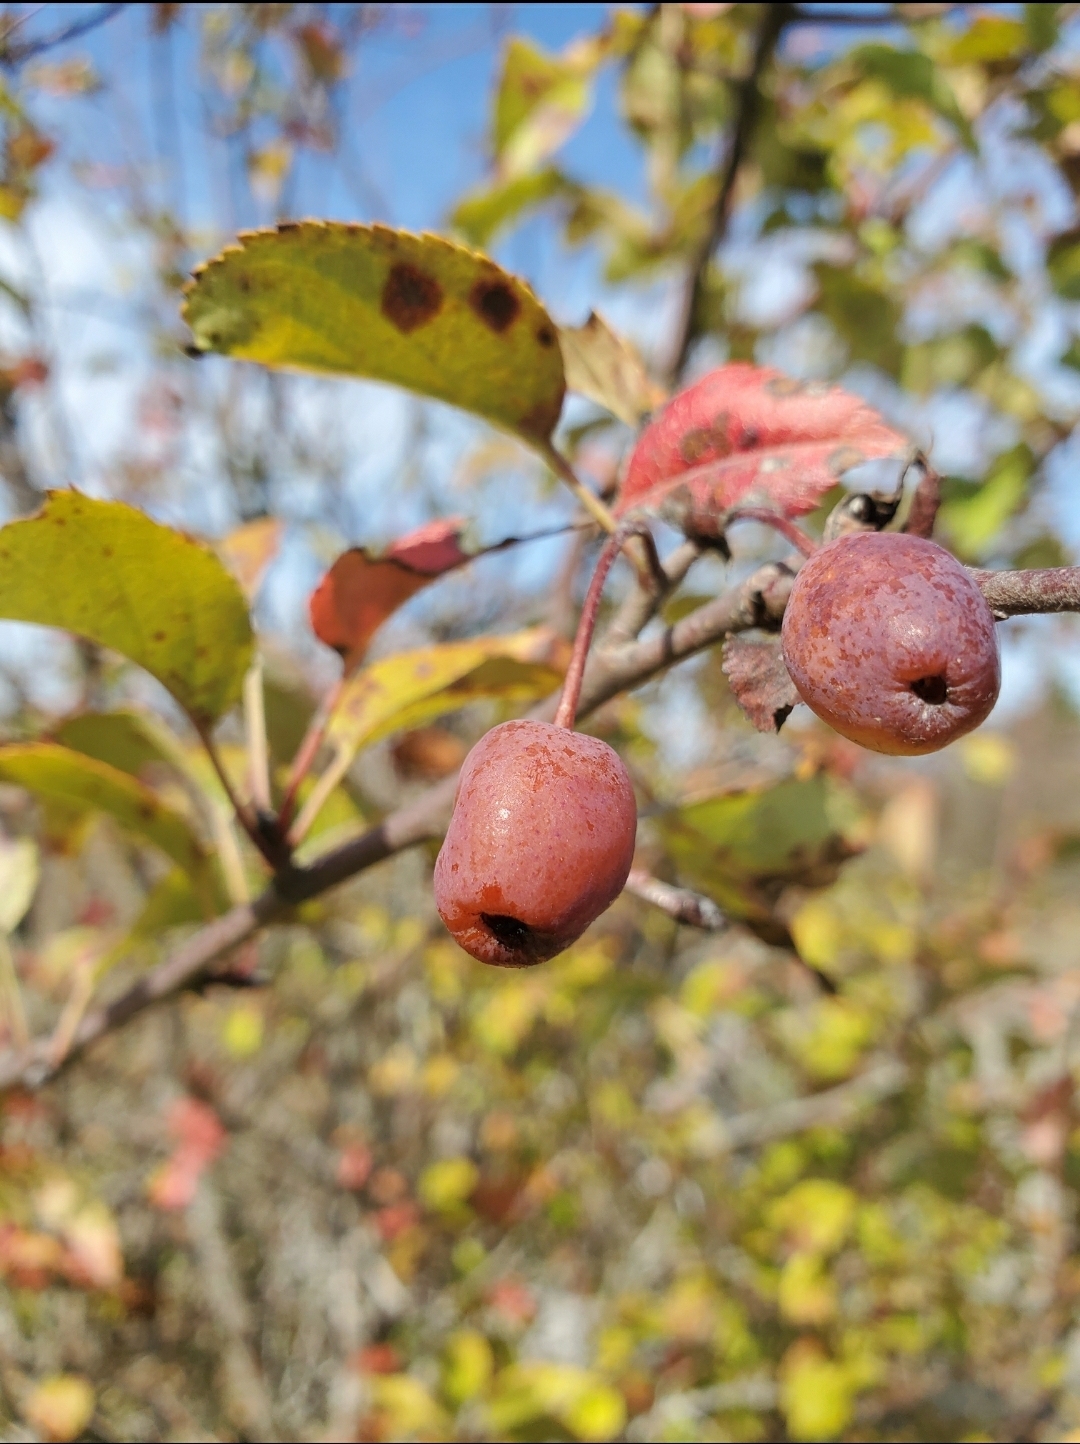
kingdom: Plantae
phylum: Tracheophyta
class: Magnoliopsida
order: Rosales
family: Rosaceae
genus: Malus
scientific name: Malus fusca
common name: Oregon crab apple
